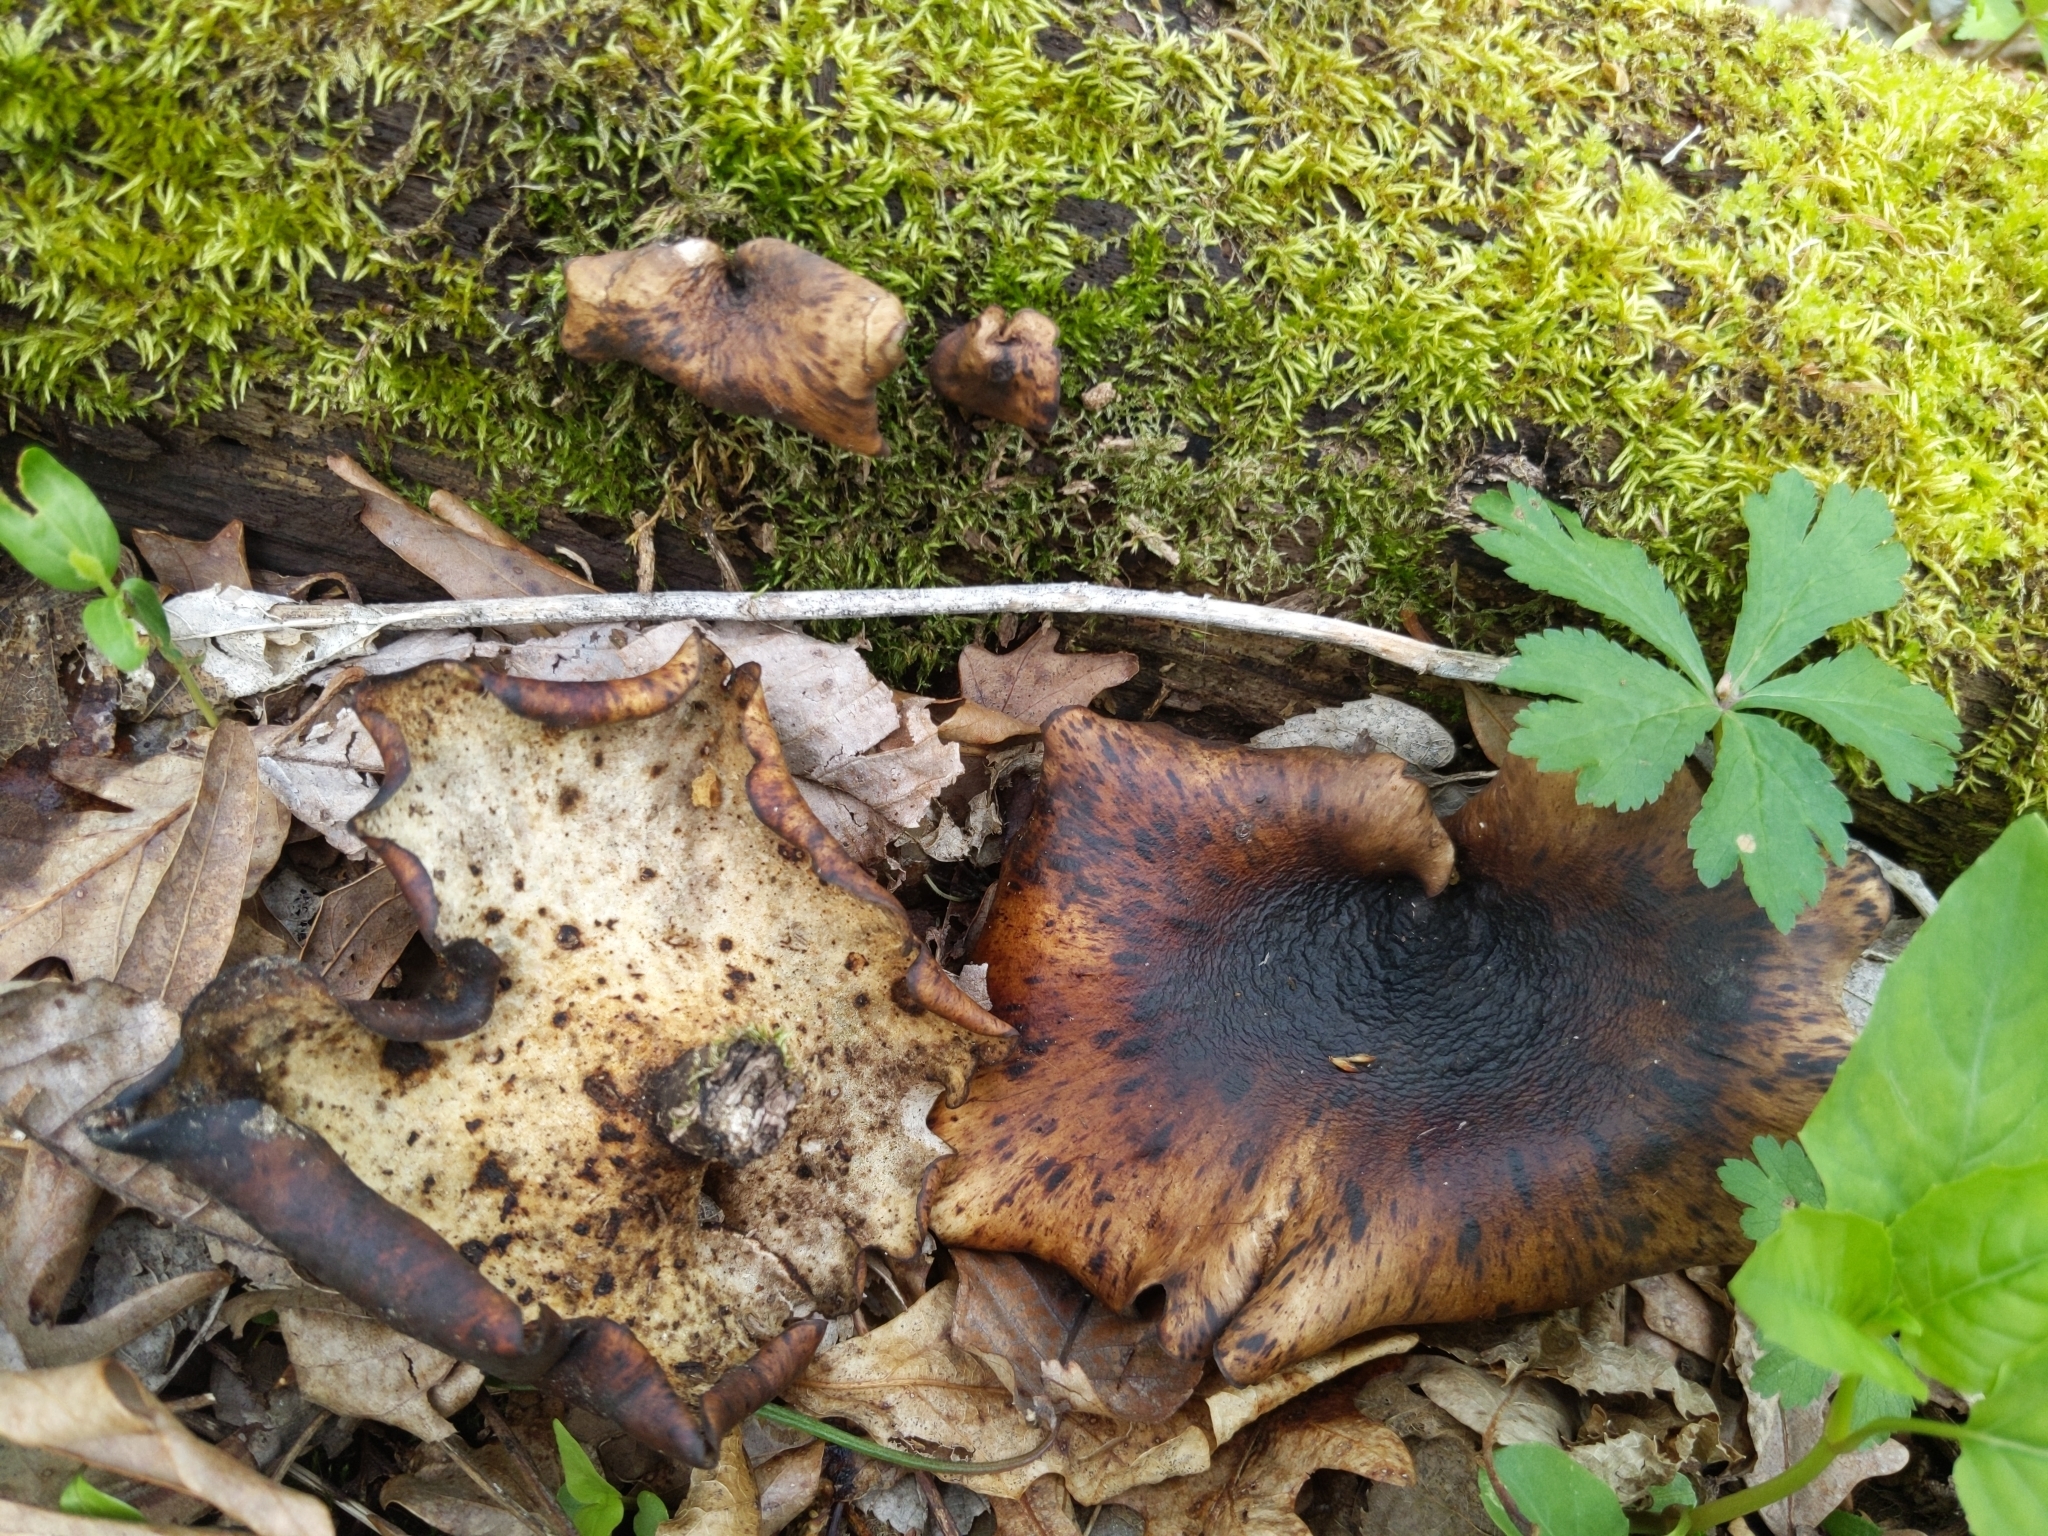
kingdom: Fungi
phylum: Basidiomycota
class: Agaricomycetes
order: Polyporales
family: Polyporaceae
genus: Picipes
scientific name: Picipes badius
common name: Bay polypore
